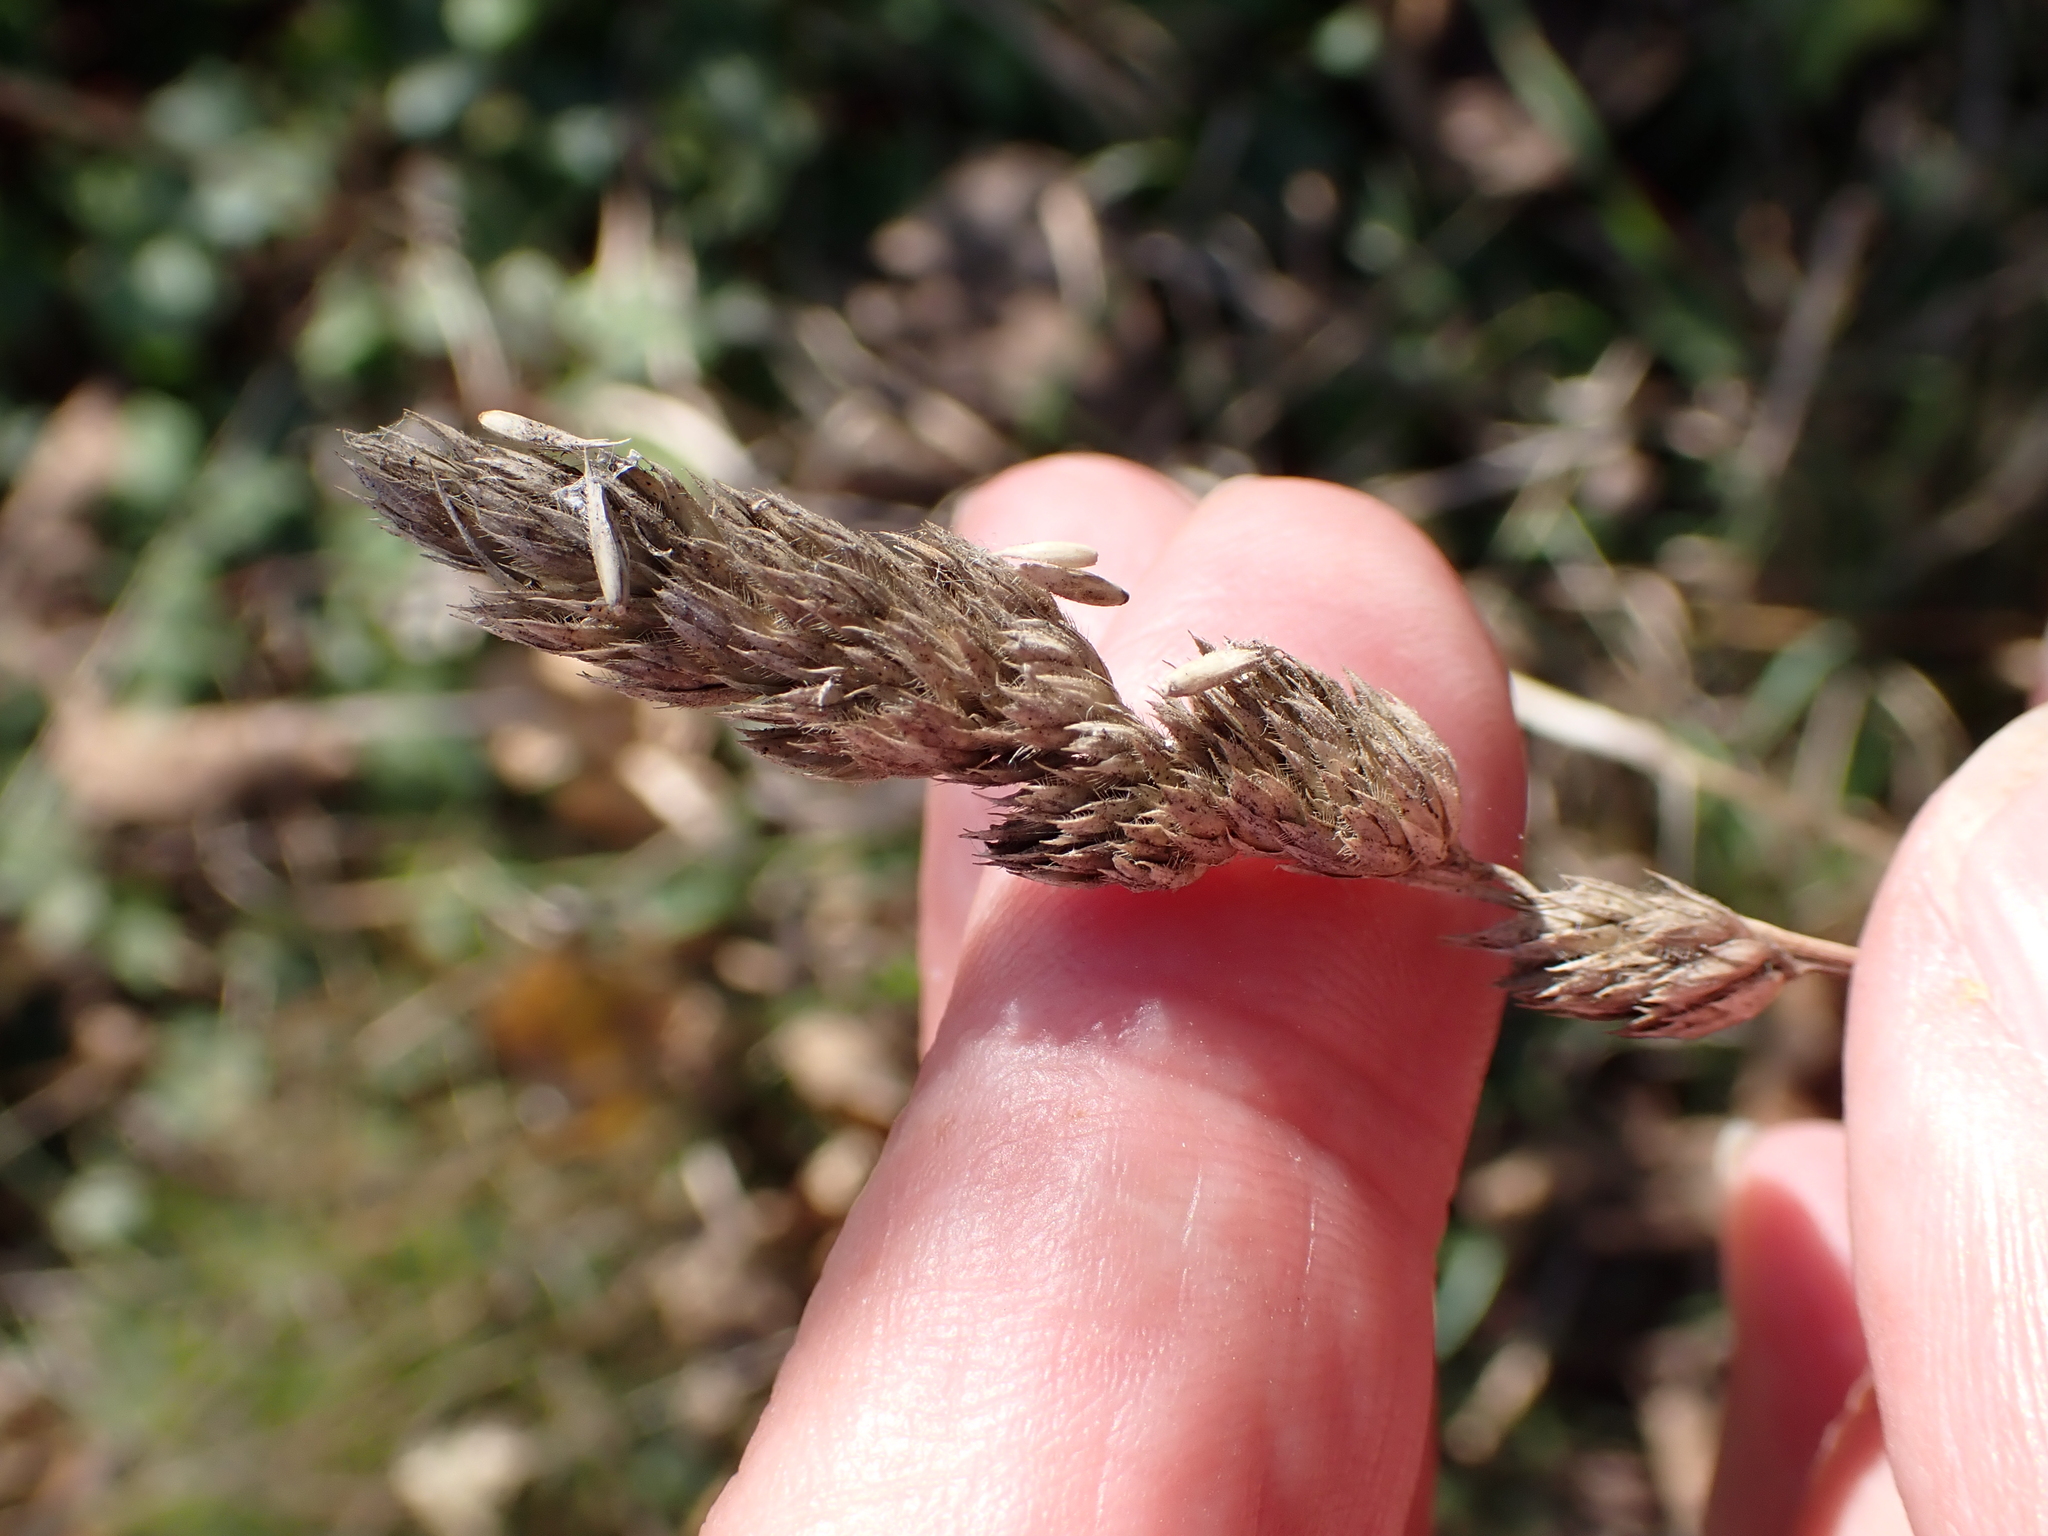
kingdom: Plantae
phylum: Tracheophyta
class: Liliopsida
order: Poales
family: Poaceae
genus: Dactylis
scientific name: Dactylis glomerata
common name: Orchardgrass
